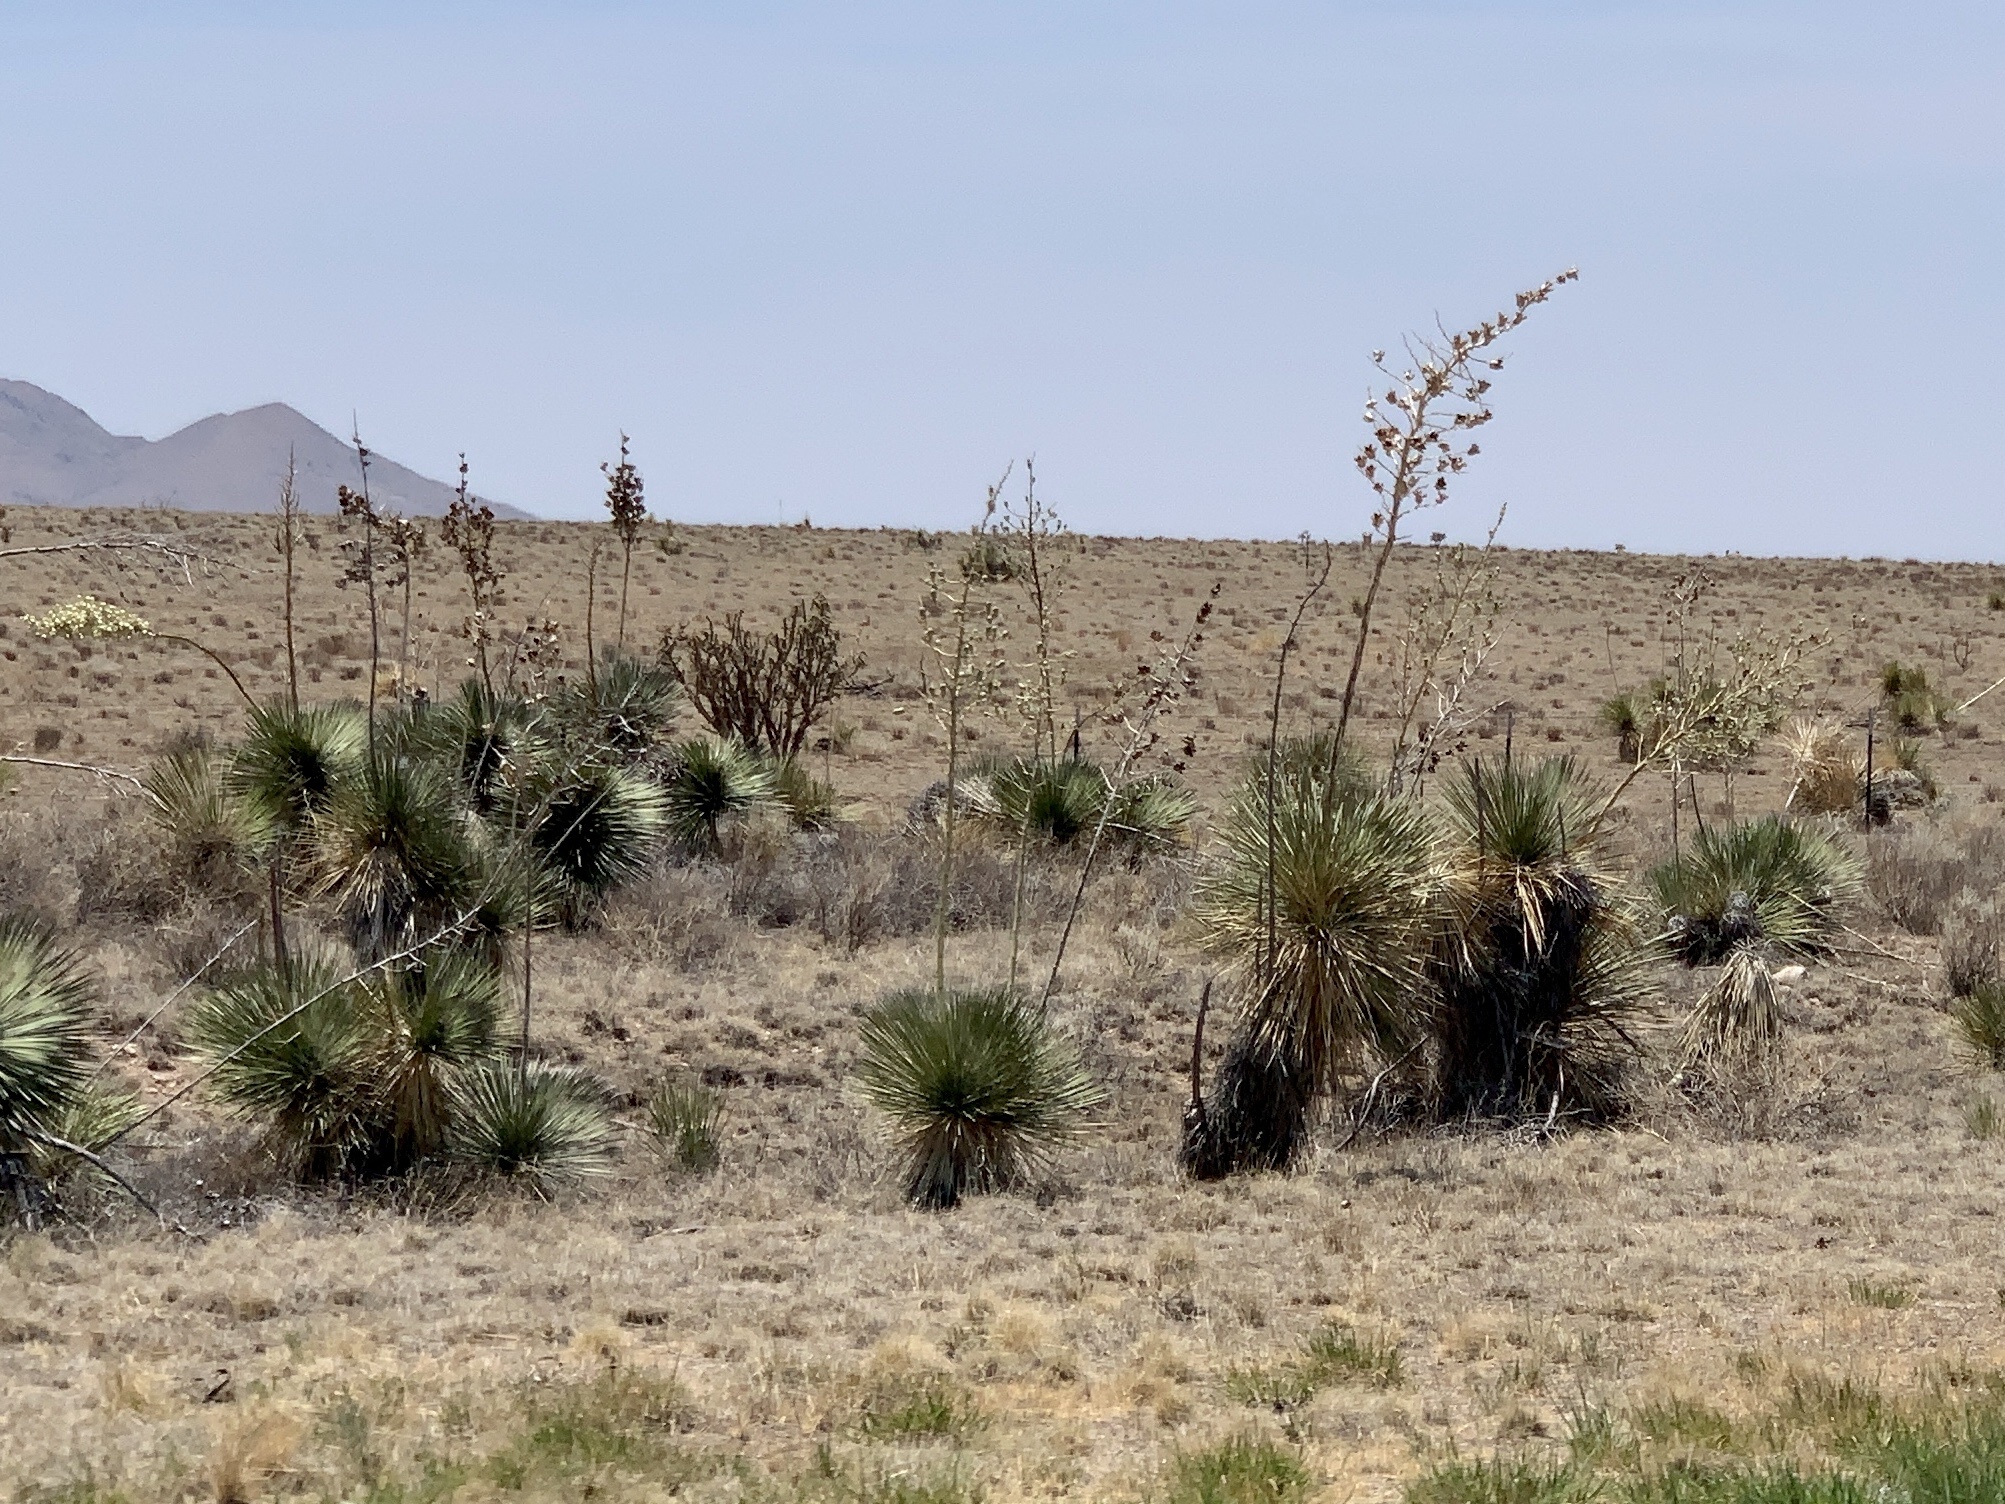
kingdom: Plantae
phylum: Tracheophyta
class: Liliopsida
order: Asparagales
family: Asparagaceae
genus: Yucca
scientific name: Yucca elata
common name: Palmella
